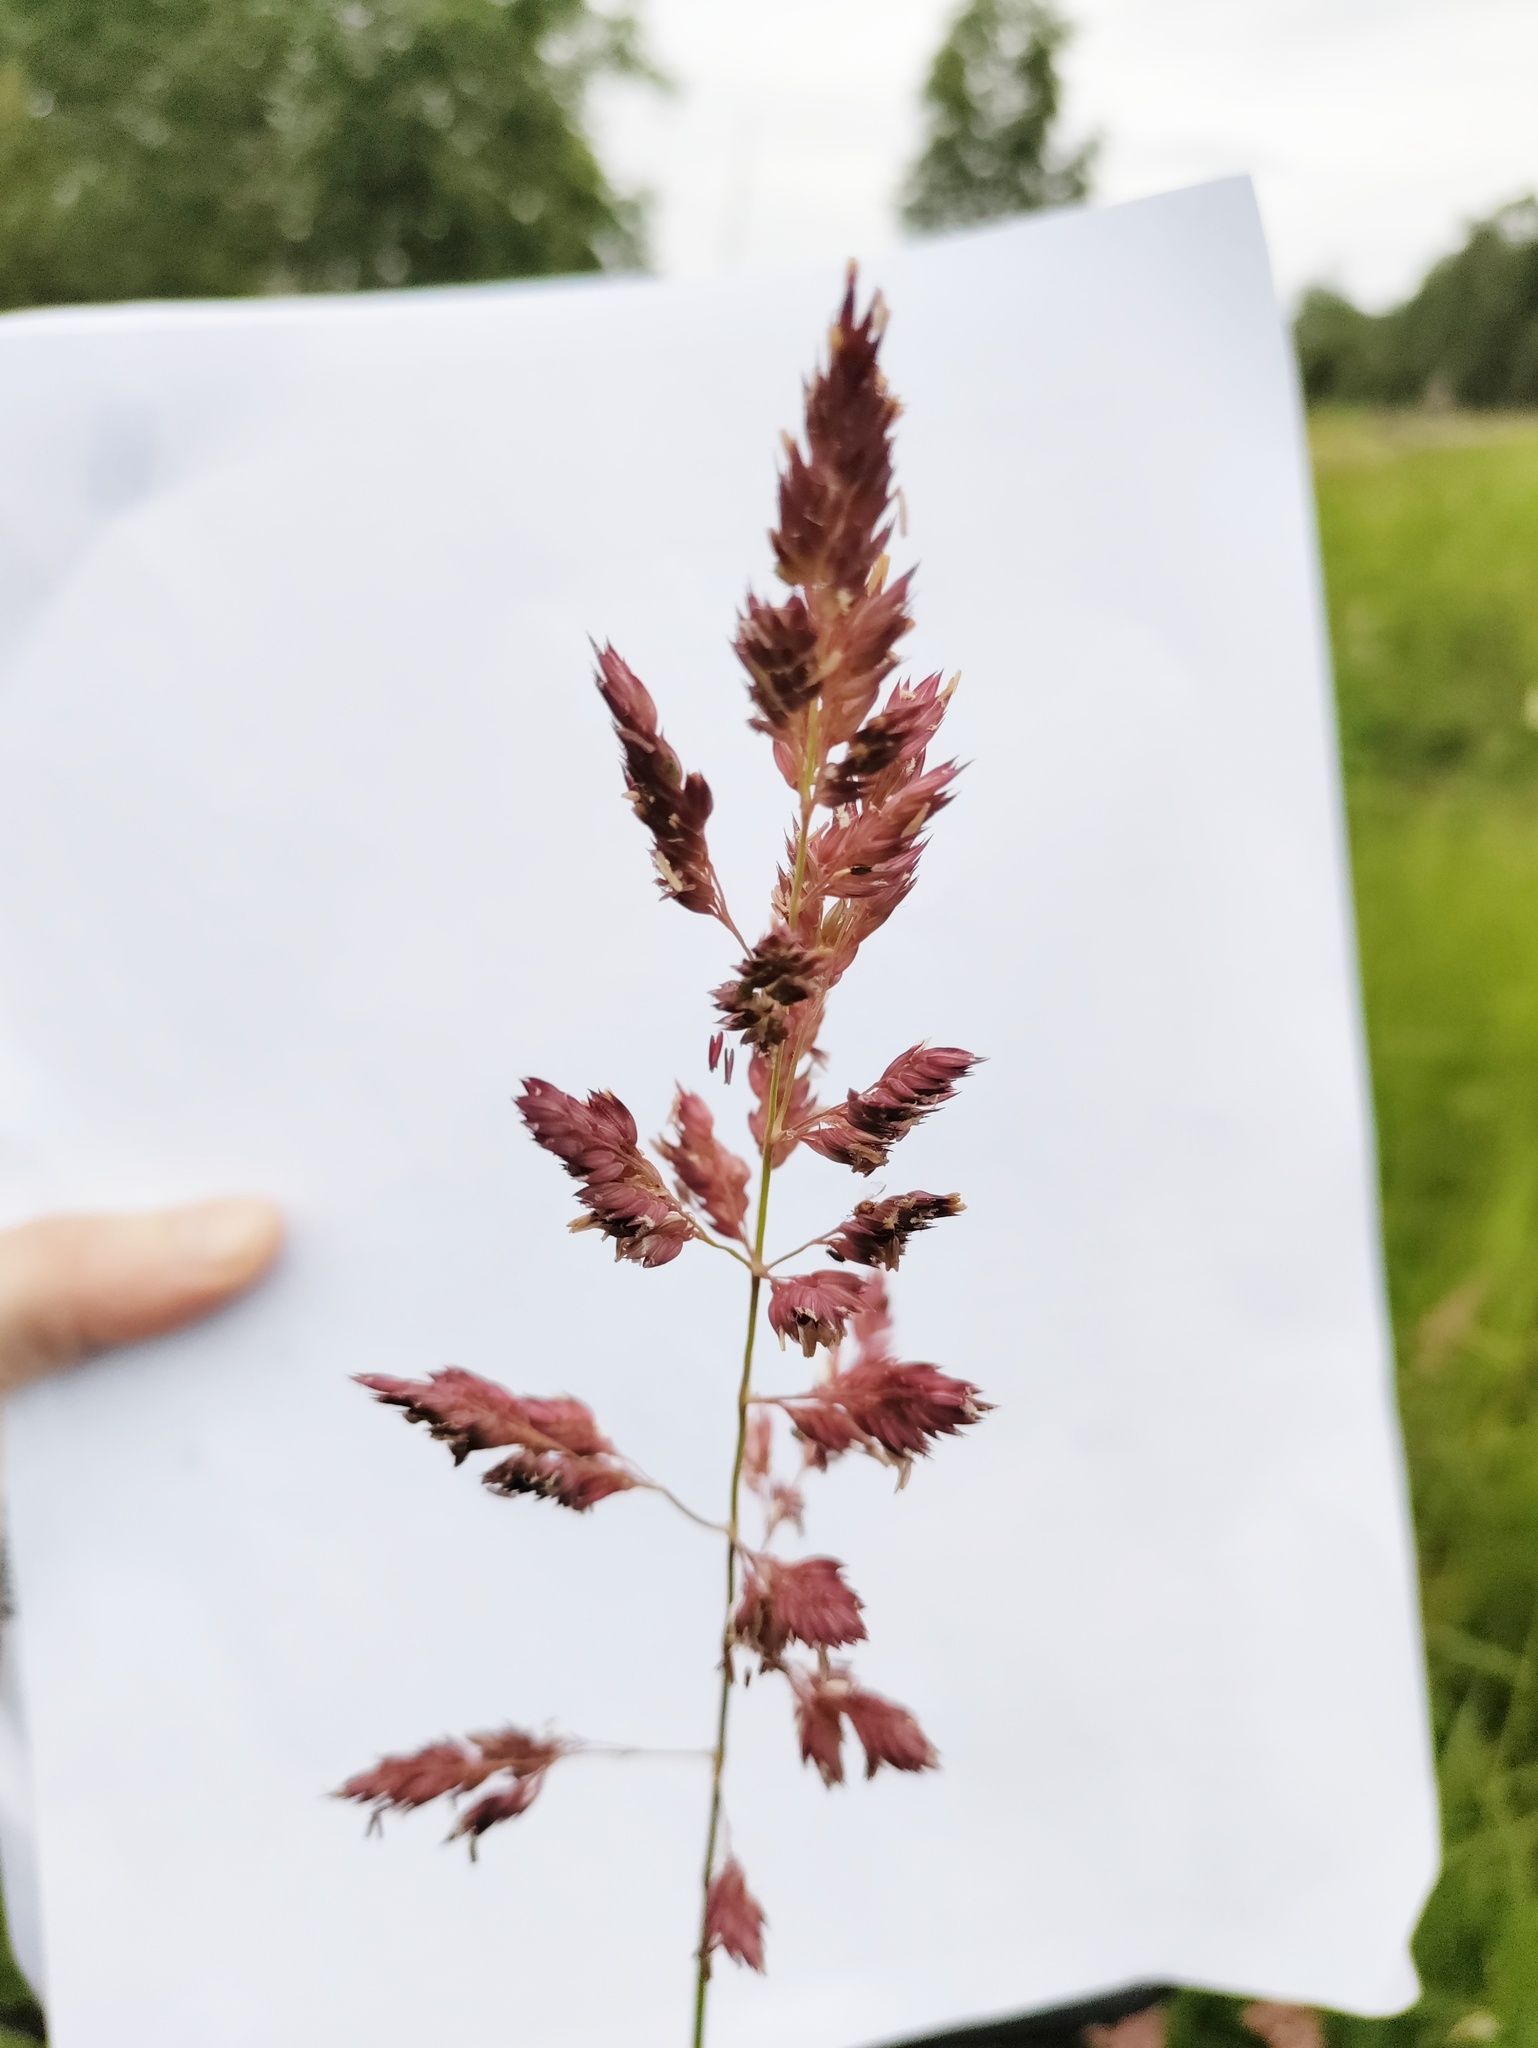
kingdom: Plantae
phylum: Tracheophyta
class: Liliopsida
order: Poales
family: Poaceae
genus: Phalaris
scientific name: Phalaris arundinacea
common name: Reed canary-grass
